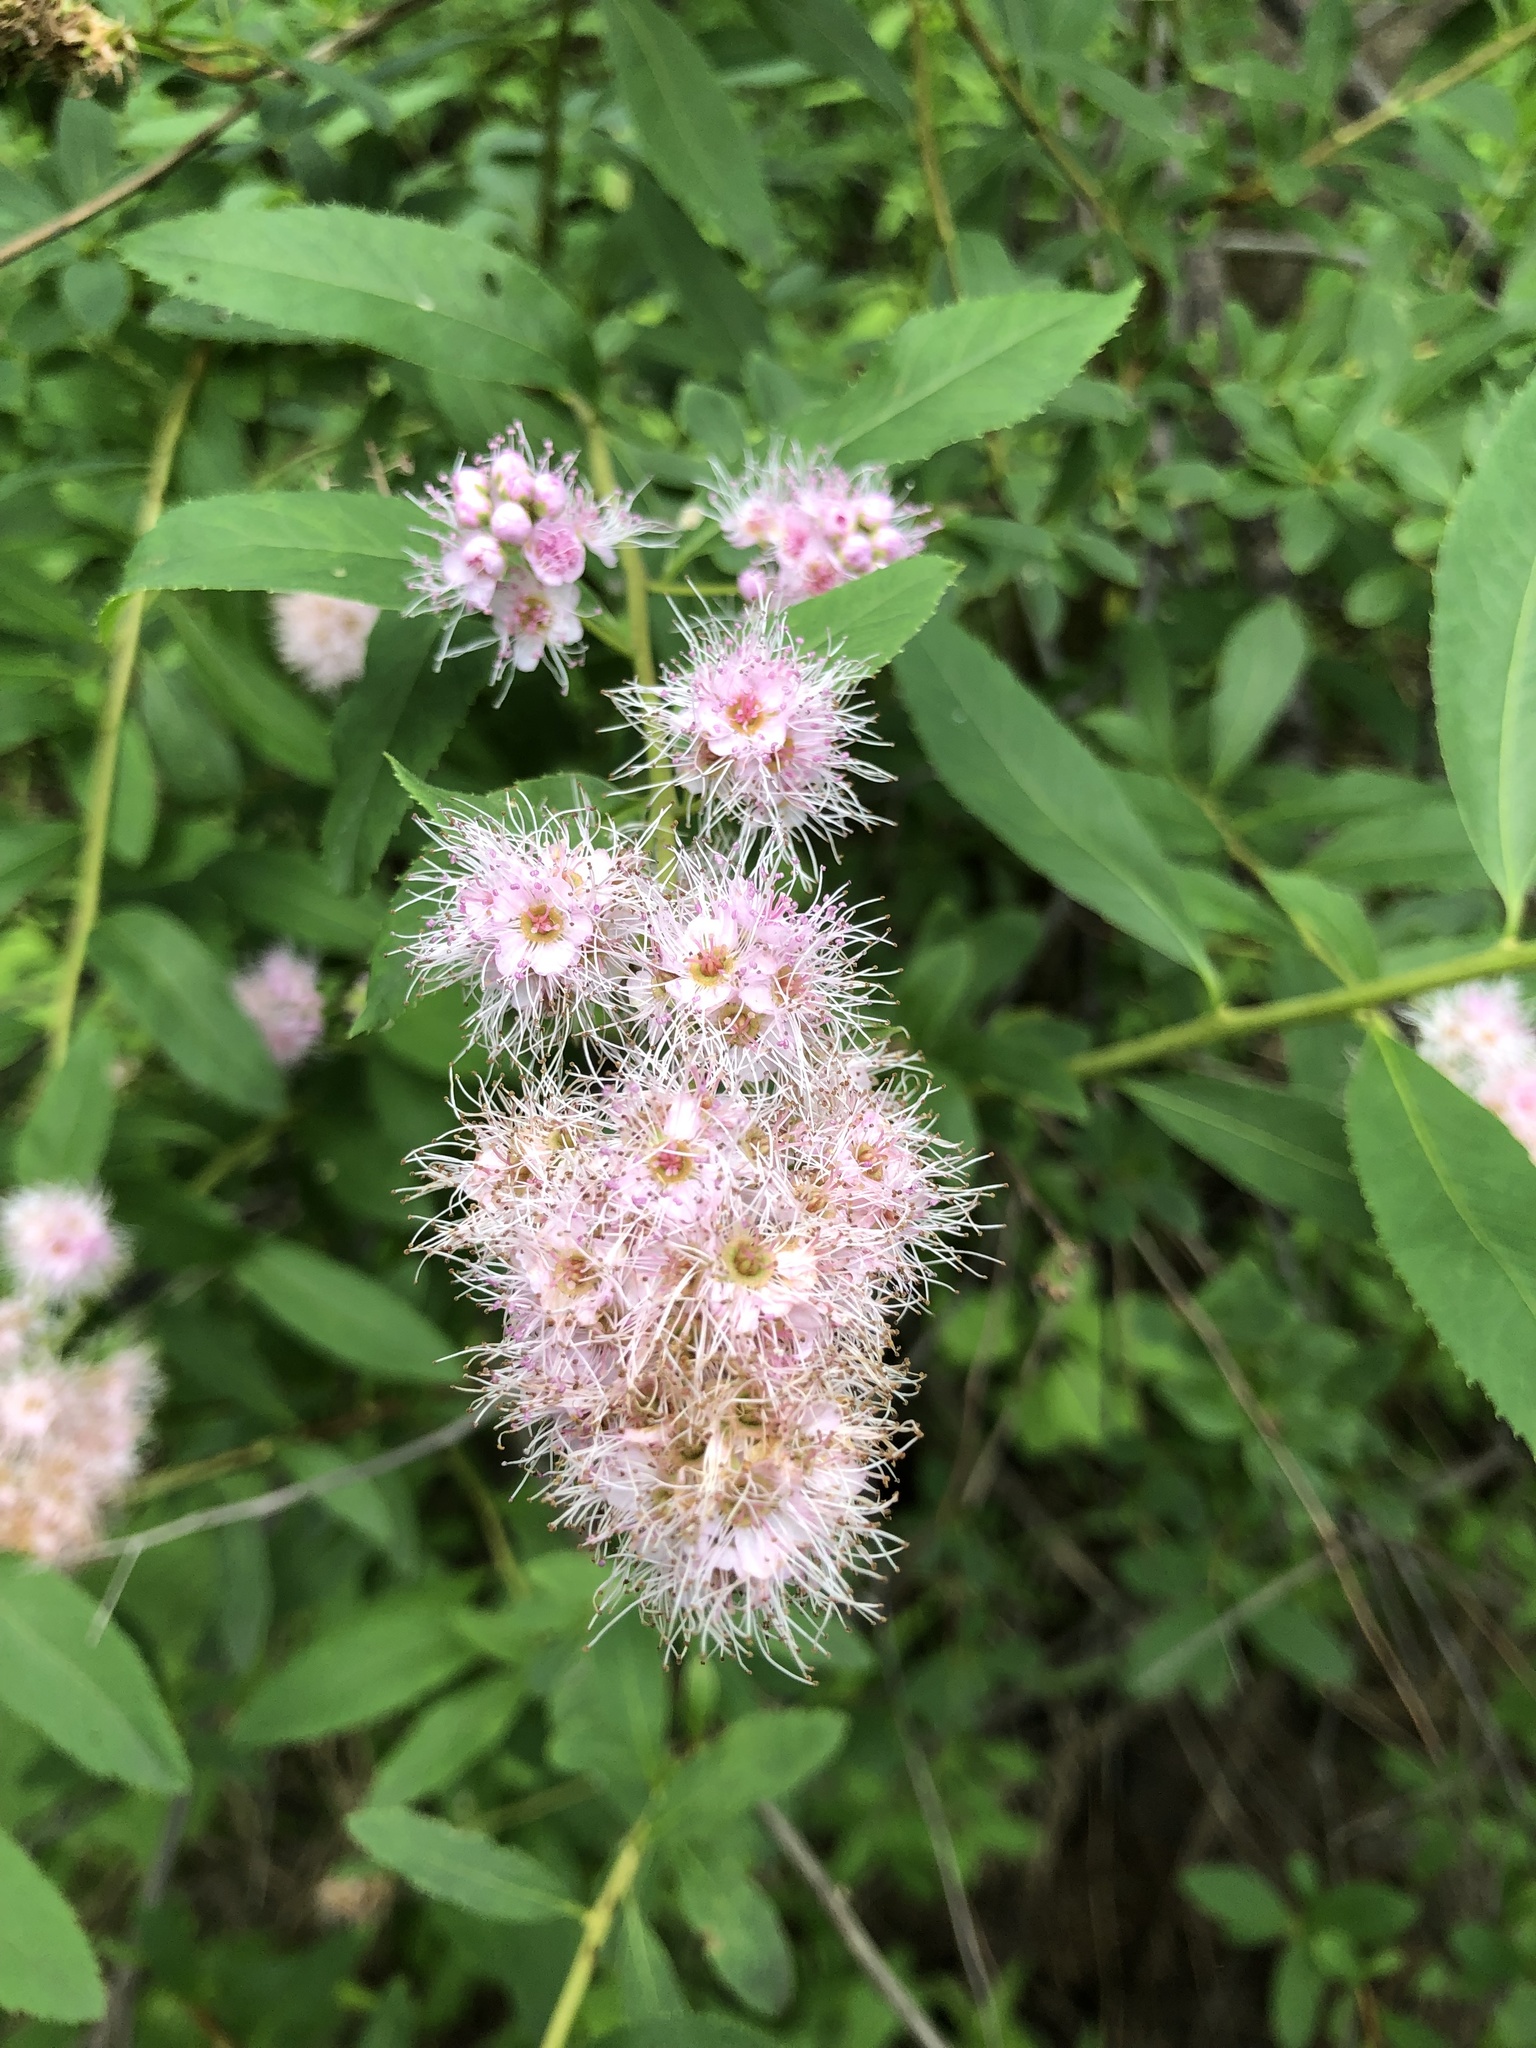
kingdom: Plantae
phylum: Tracheophyta
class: Magnoliopsida
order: Rosales
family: Rosaceae
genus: Spiraea
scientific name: Spiraea salicifolia
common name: Bridewort
